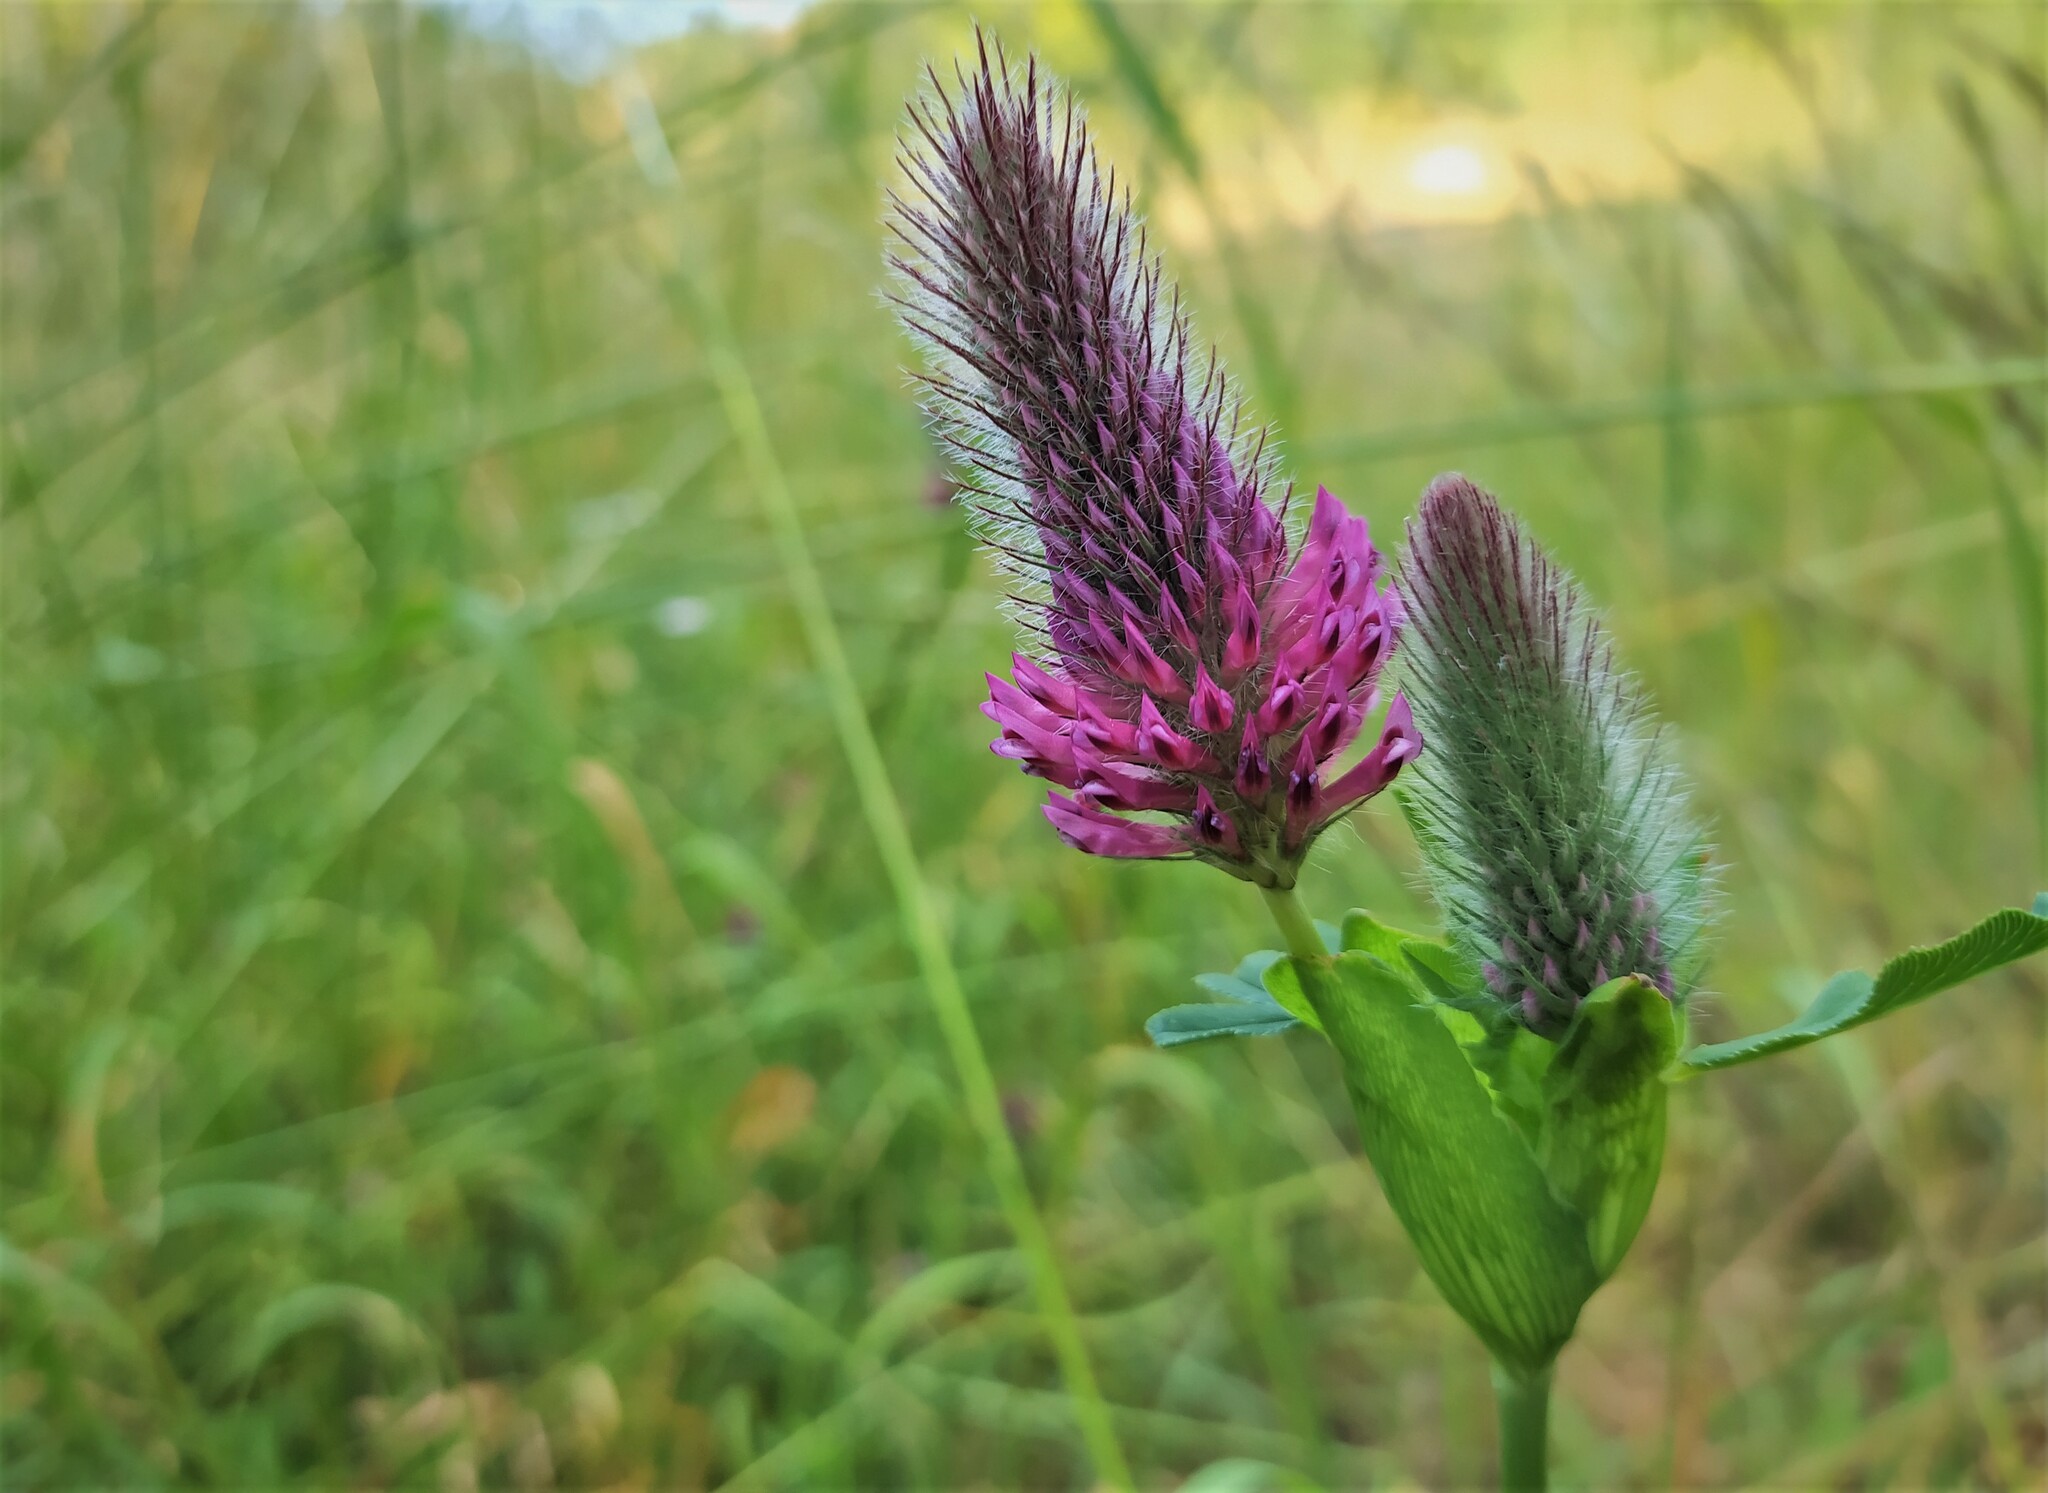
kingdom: Plantae
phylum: Tracheophyta
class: Magnoliopsida
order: Fabales
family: Fabaceae
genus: Trifolium
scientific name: Trifolium rubens
